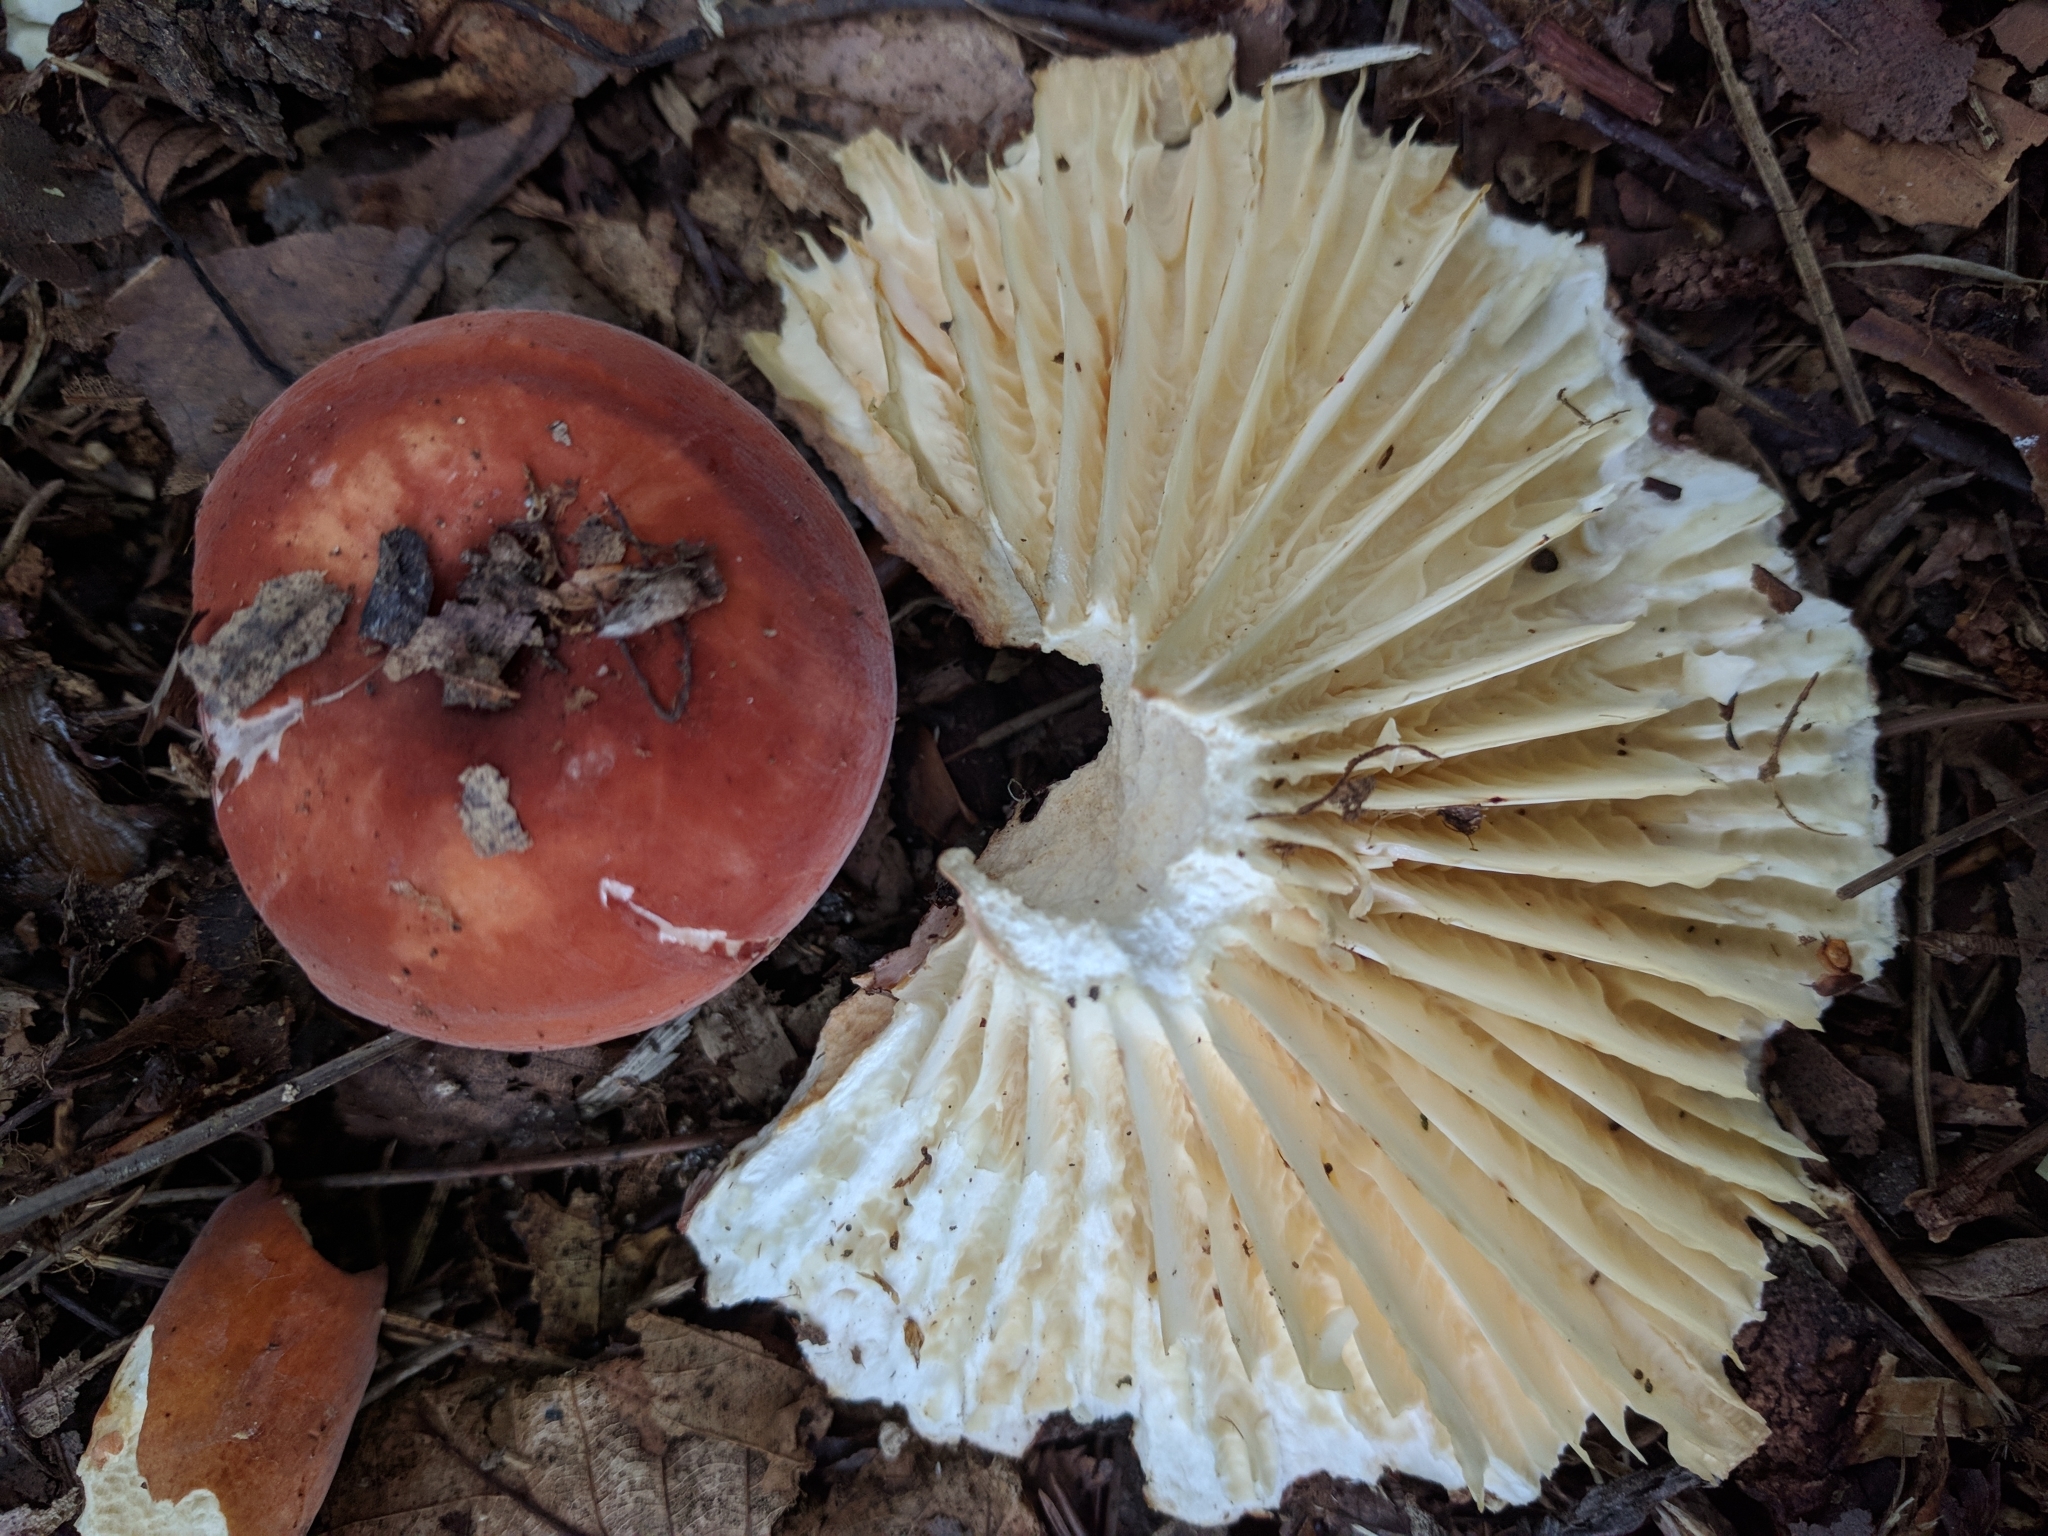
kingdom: Fungi
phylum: Basidiomycota
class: Agaricomycetes
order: Russulales
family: Russulaceae
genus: Lactarius
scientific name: Lactarius hygrophoroides
